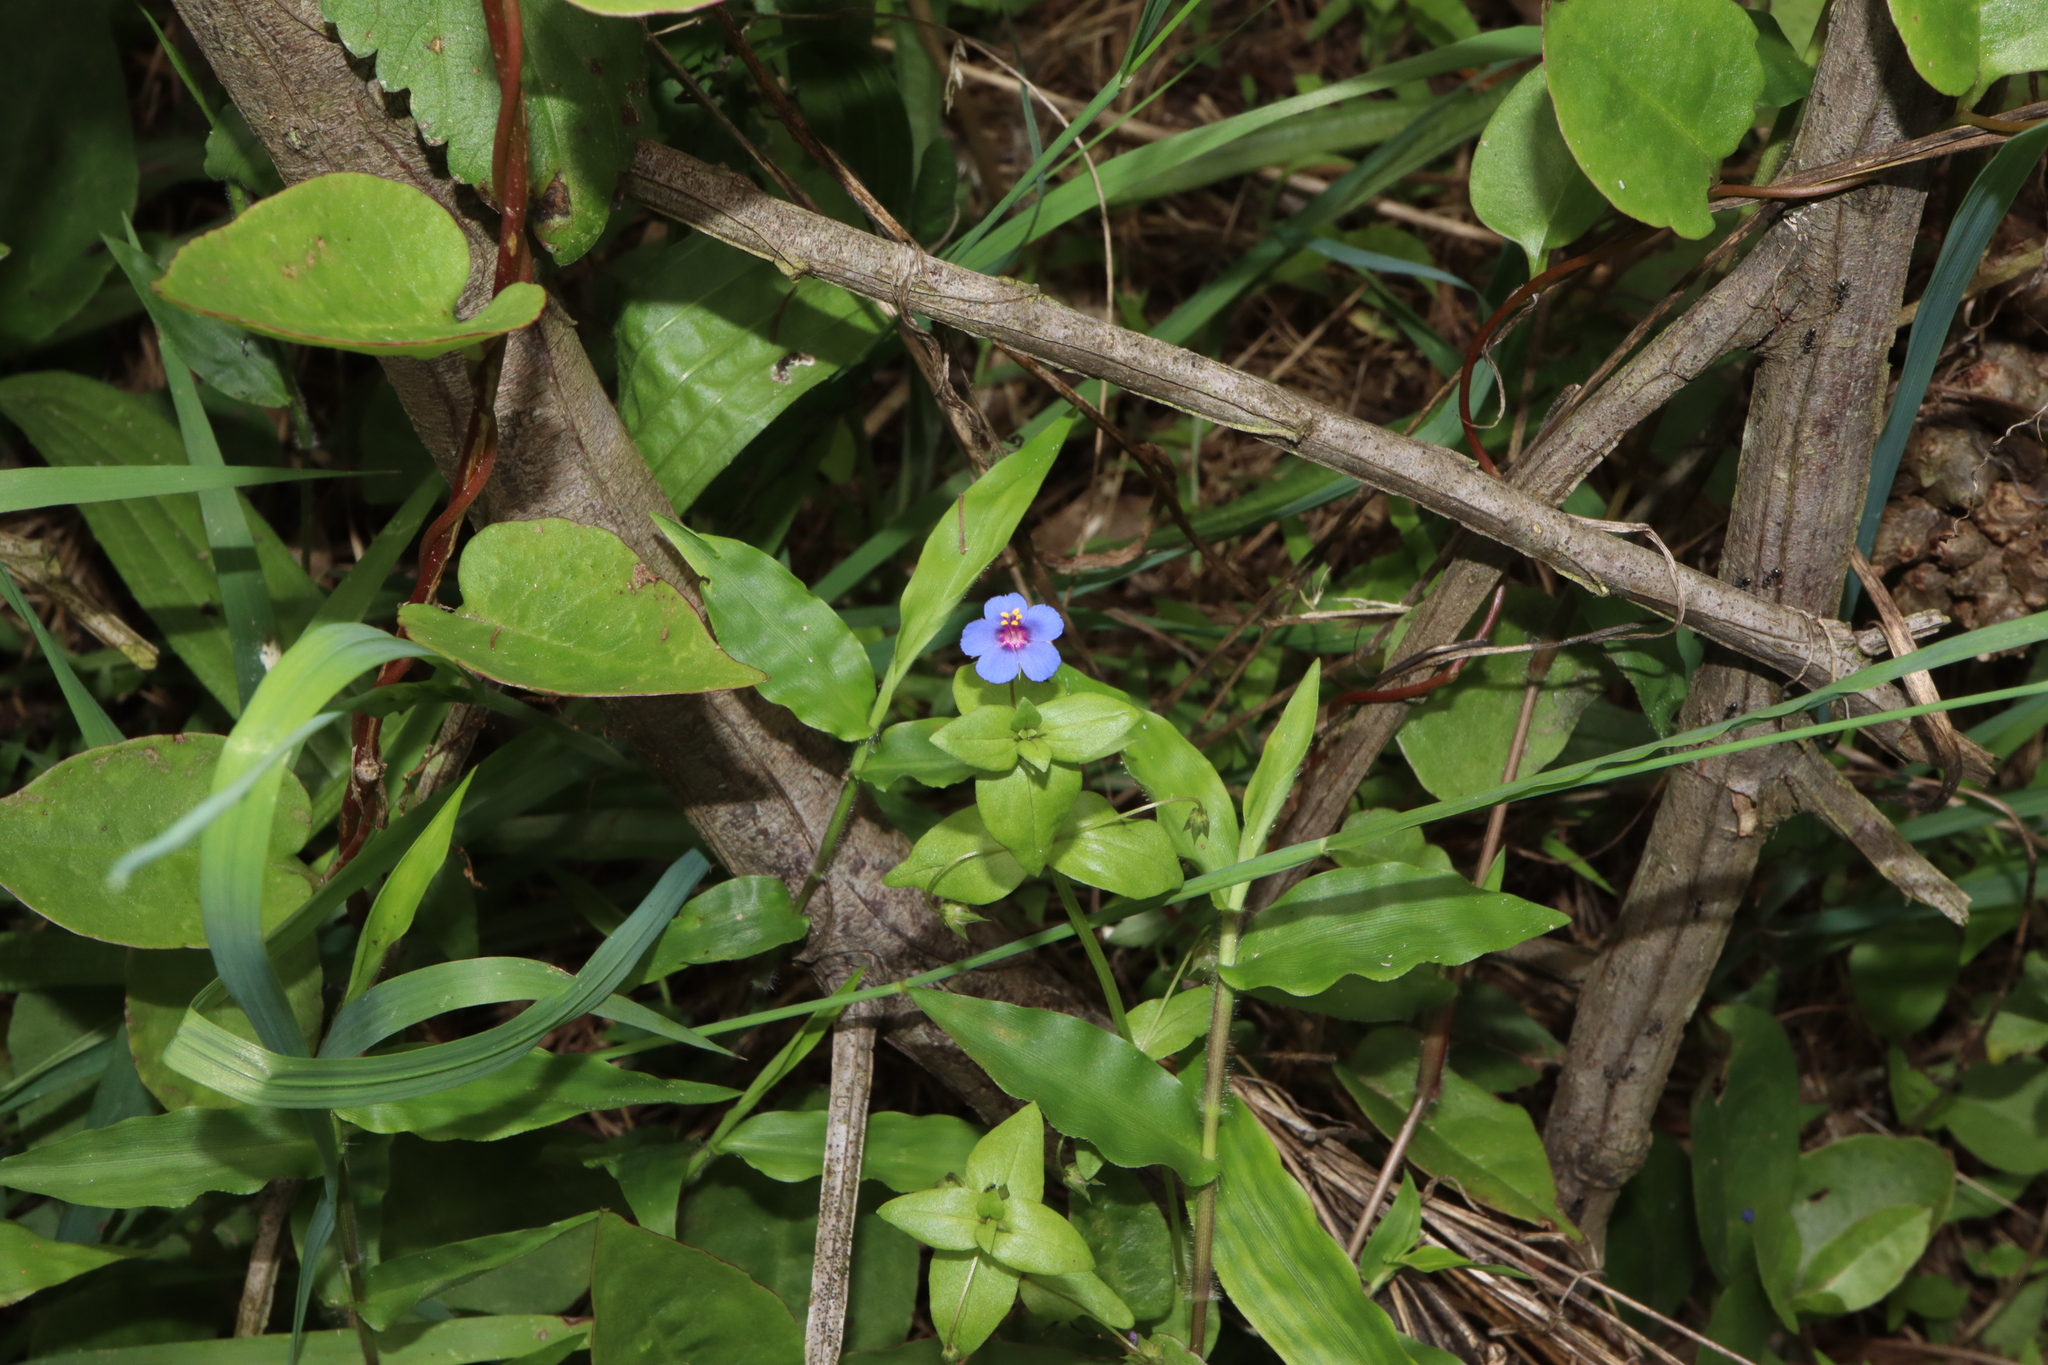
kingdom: Plantae
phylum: Tracheophyta
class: Magnoliopsida
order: Ericales
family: Primulaceae
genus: Lysimachia
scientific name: Lysimachia loeflingii
